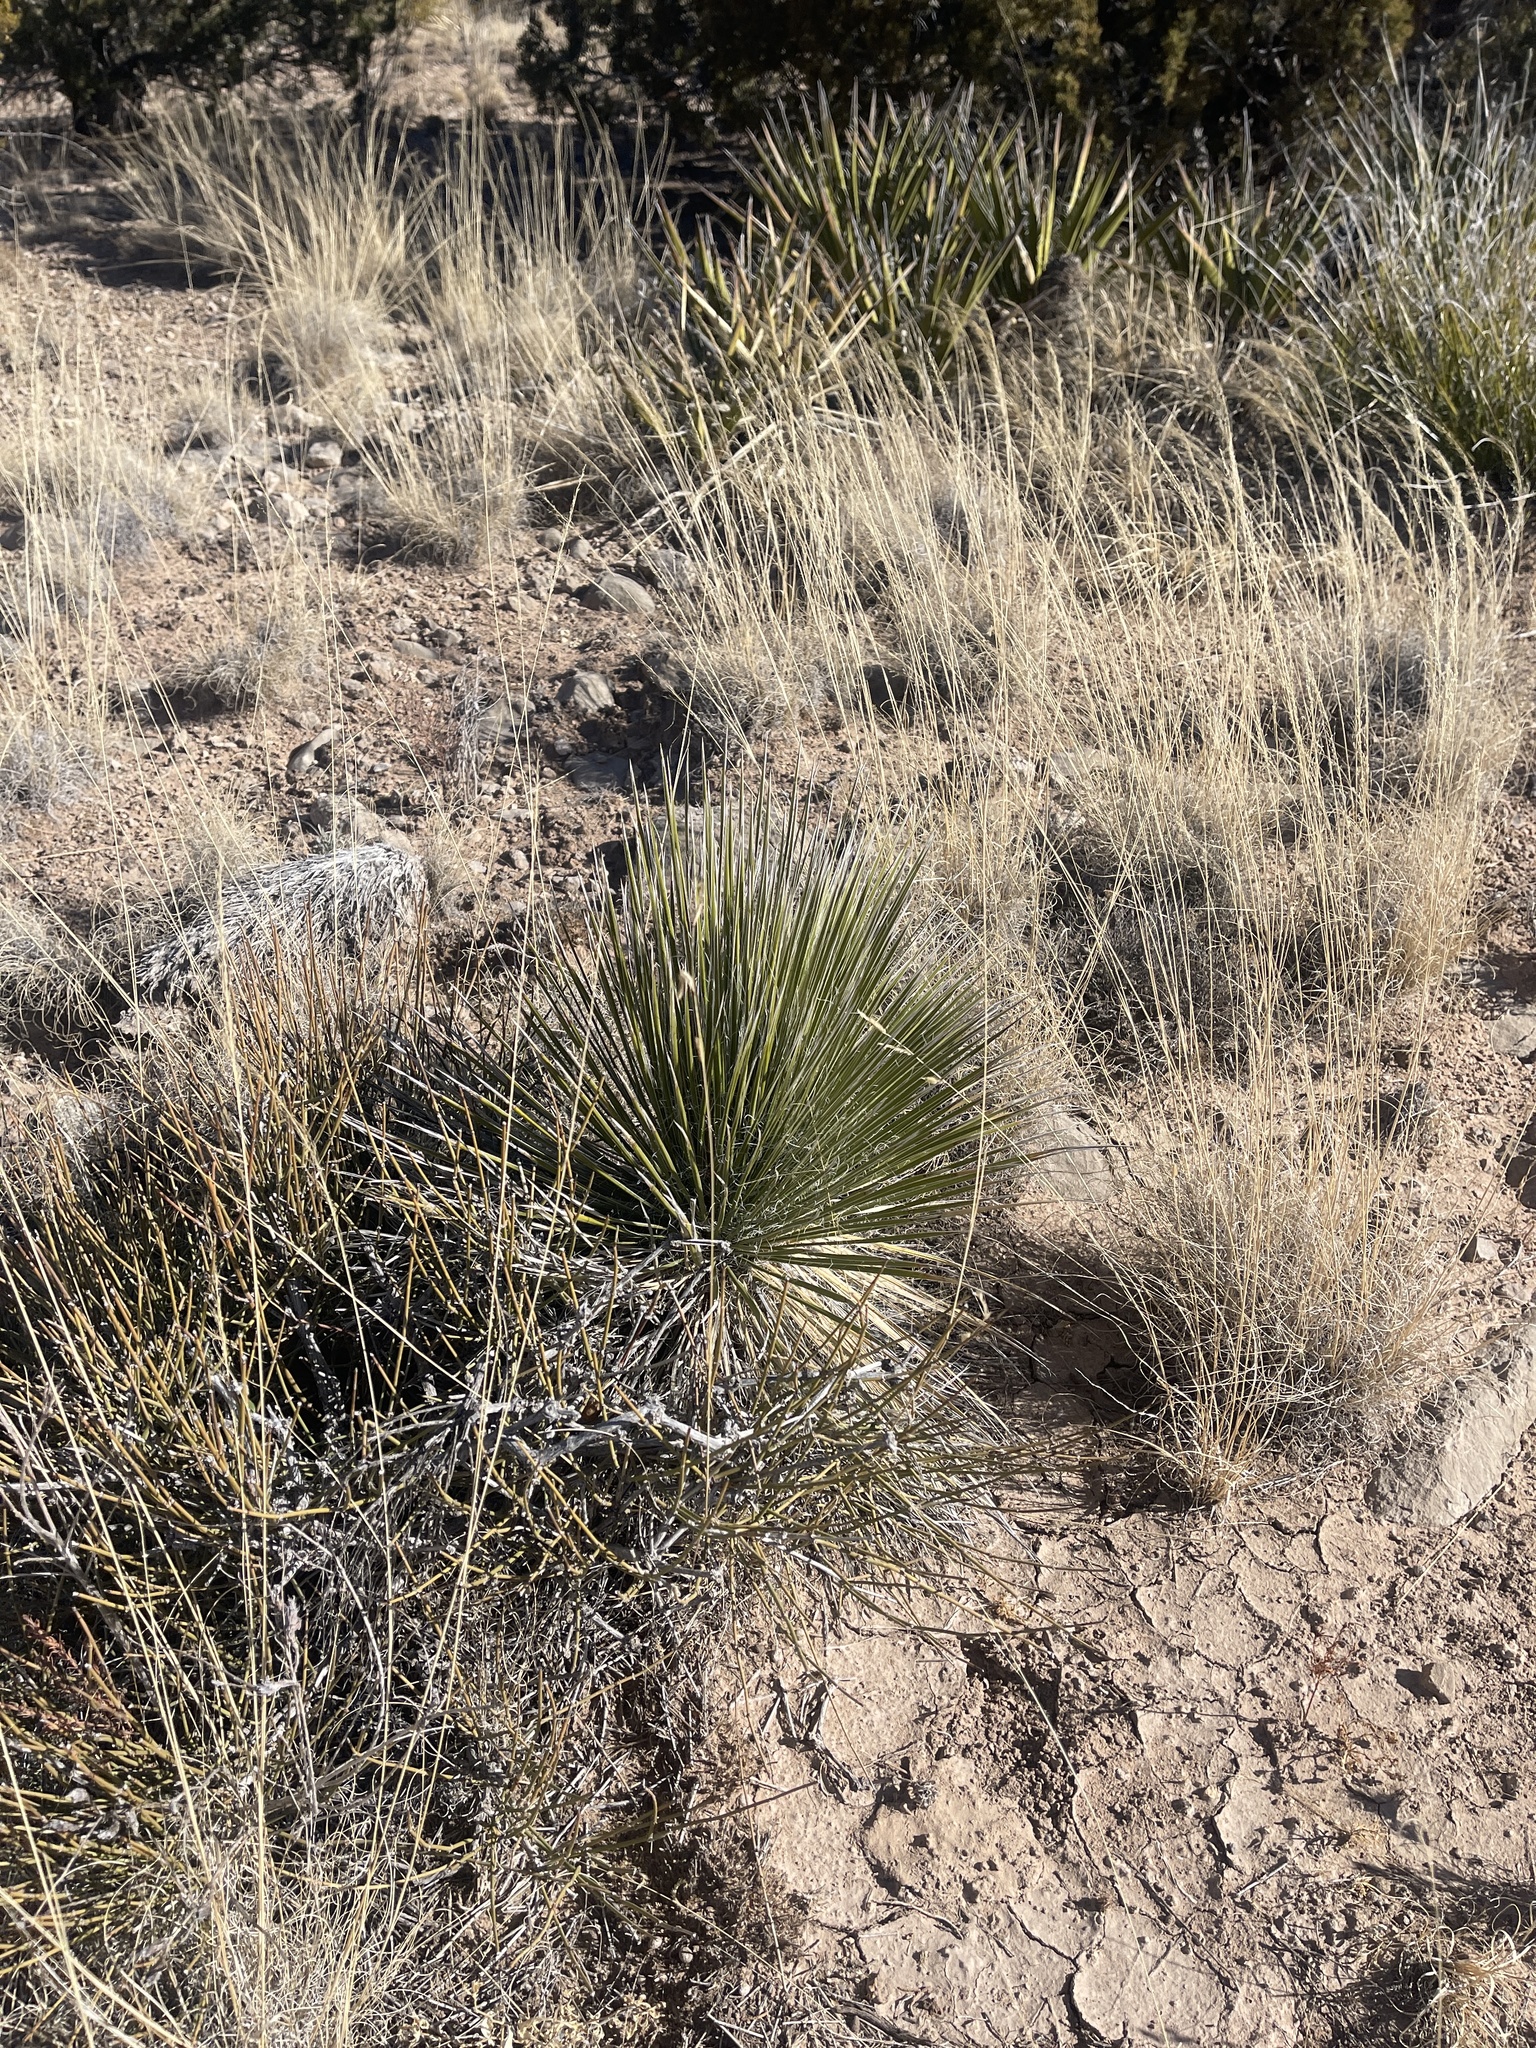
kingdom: Plantae
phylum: Tracheophyta
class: Liliopsida
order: Asparagales
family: Asparagaceae
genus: Yucca
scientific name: Yucca elata
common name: Palmella
